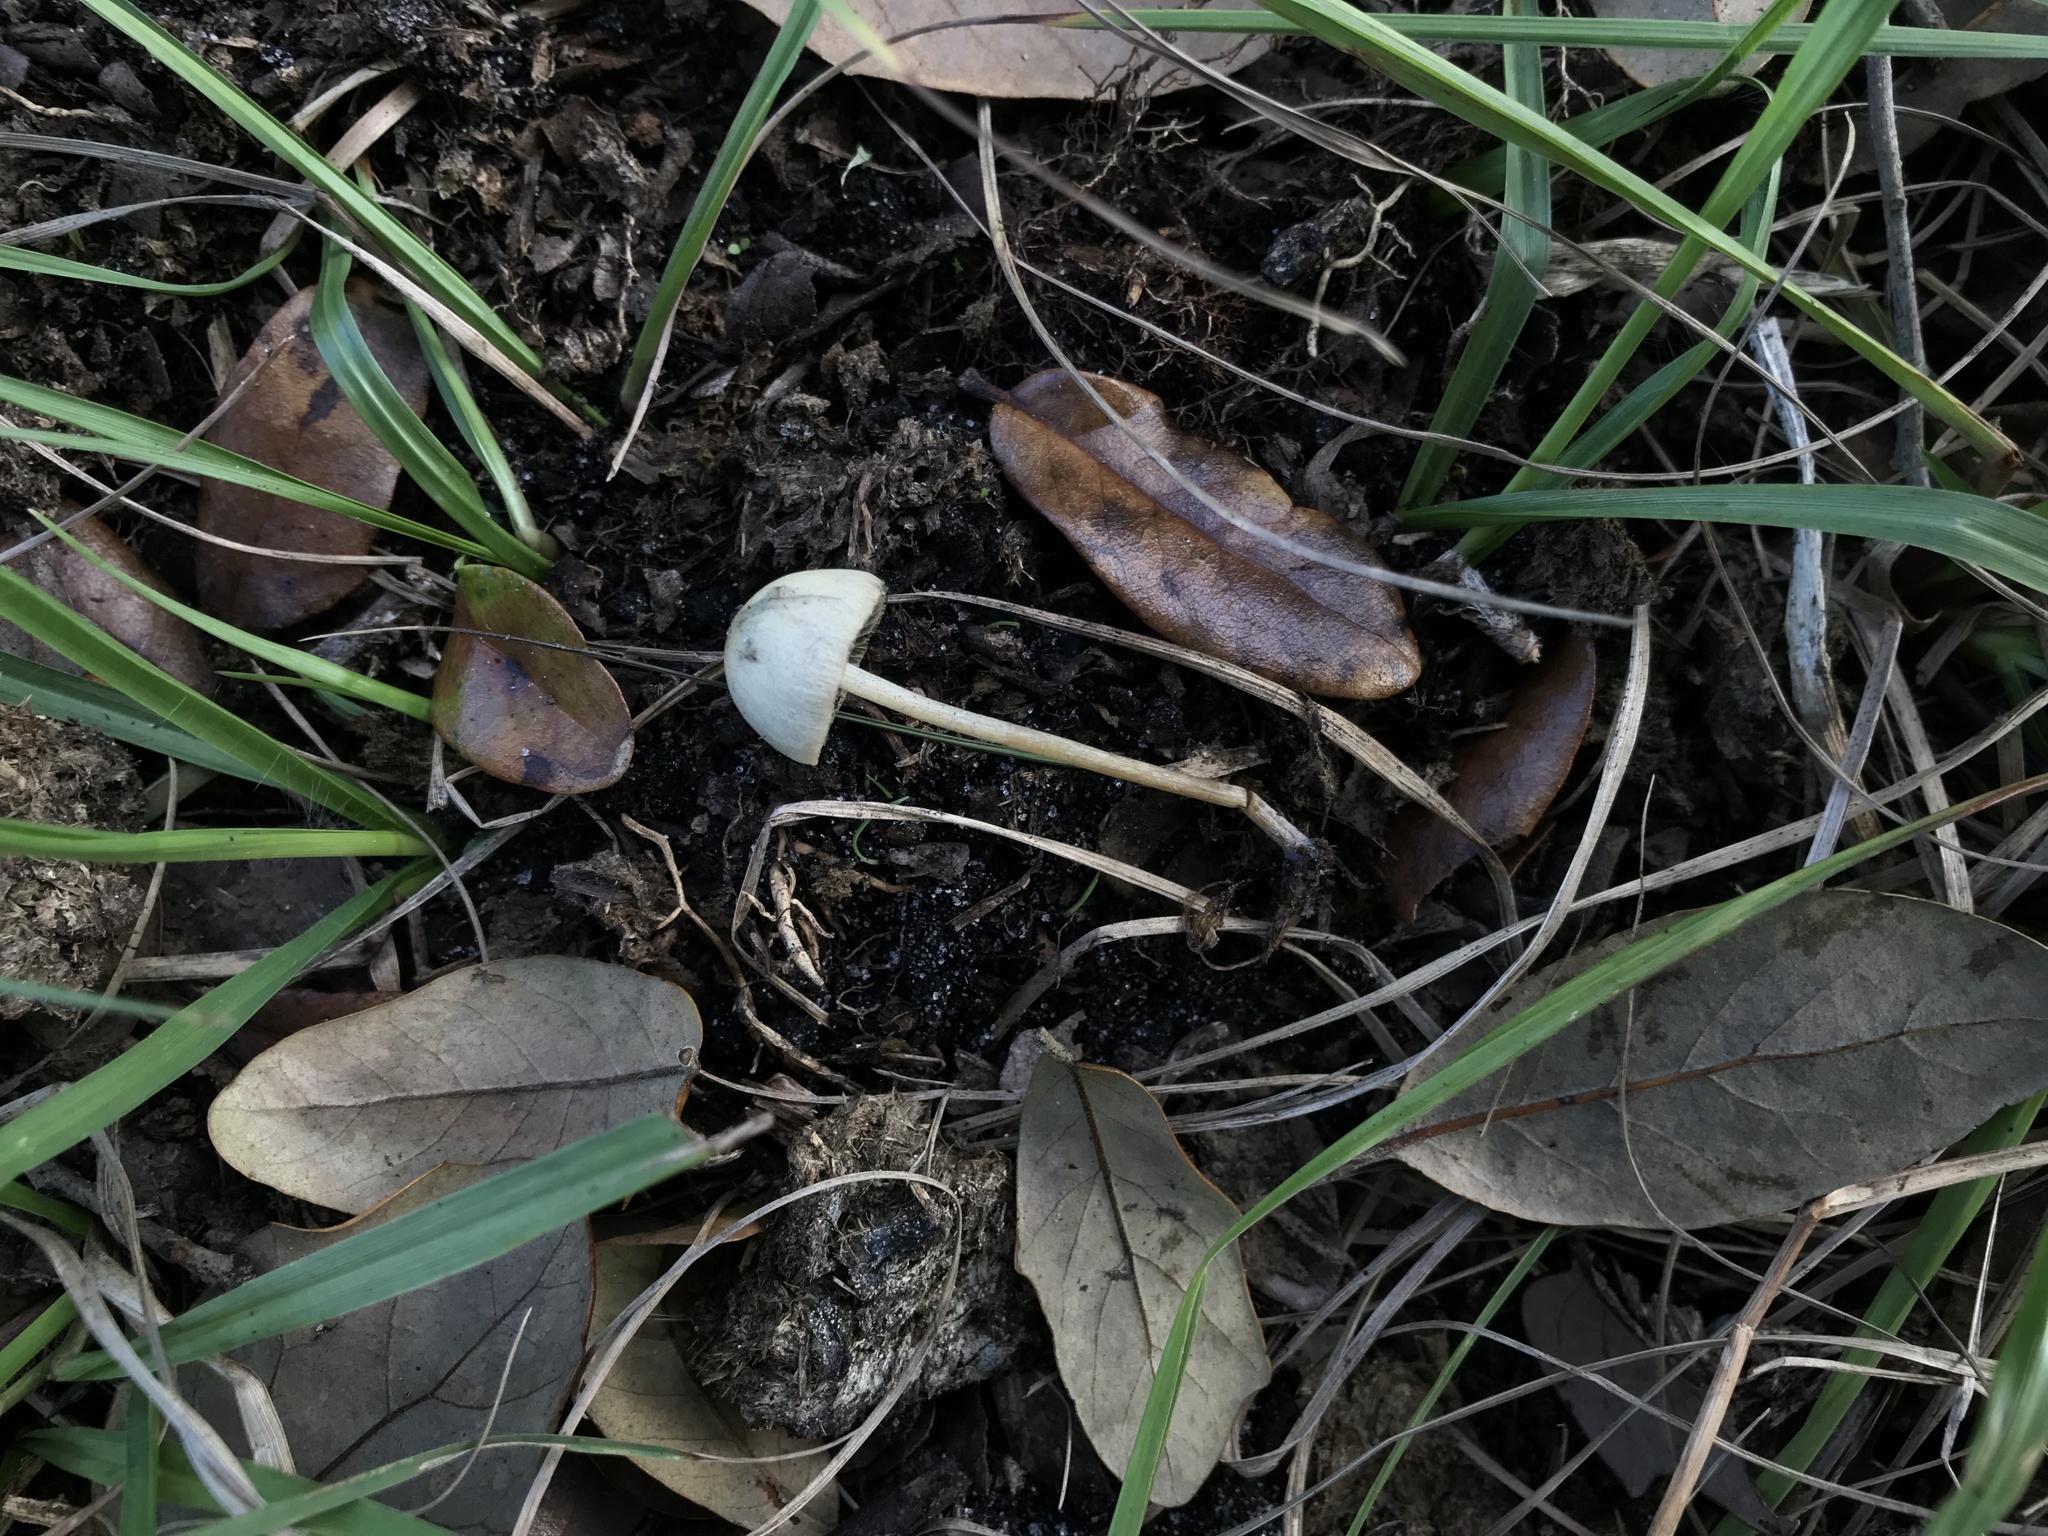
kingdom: Fungi
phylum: Basidiomycota
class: Agaricomycetes
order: Agaricales
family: Bolbitiaceae
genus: Panaeolus
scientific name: Panaeolus cyanescens
